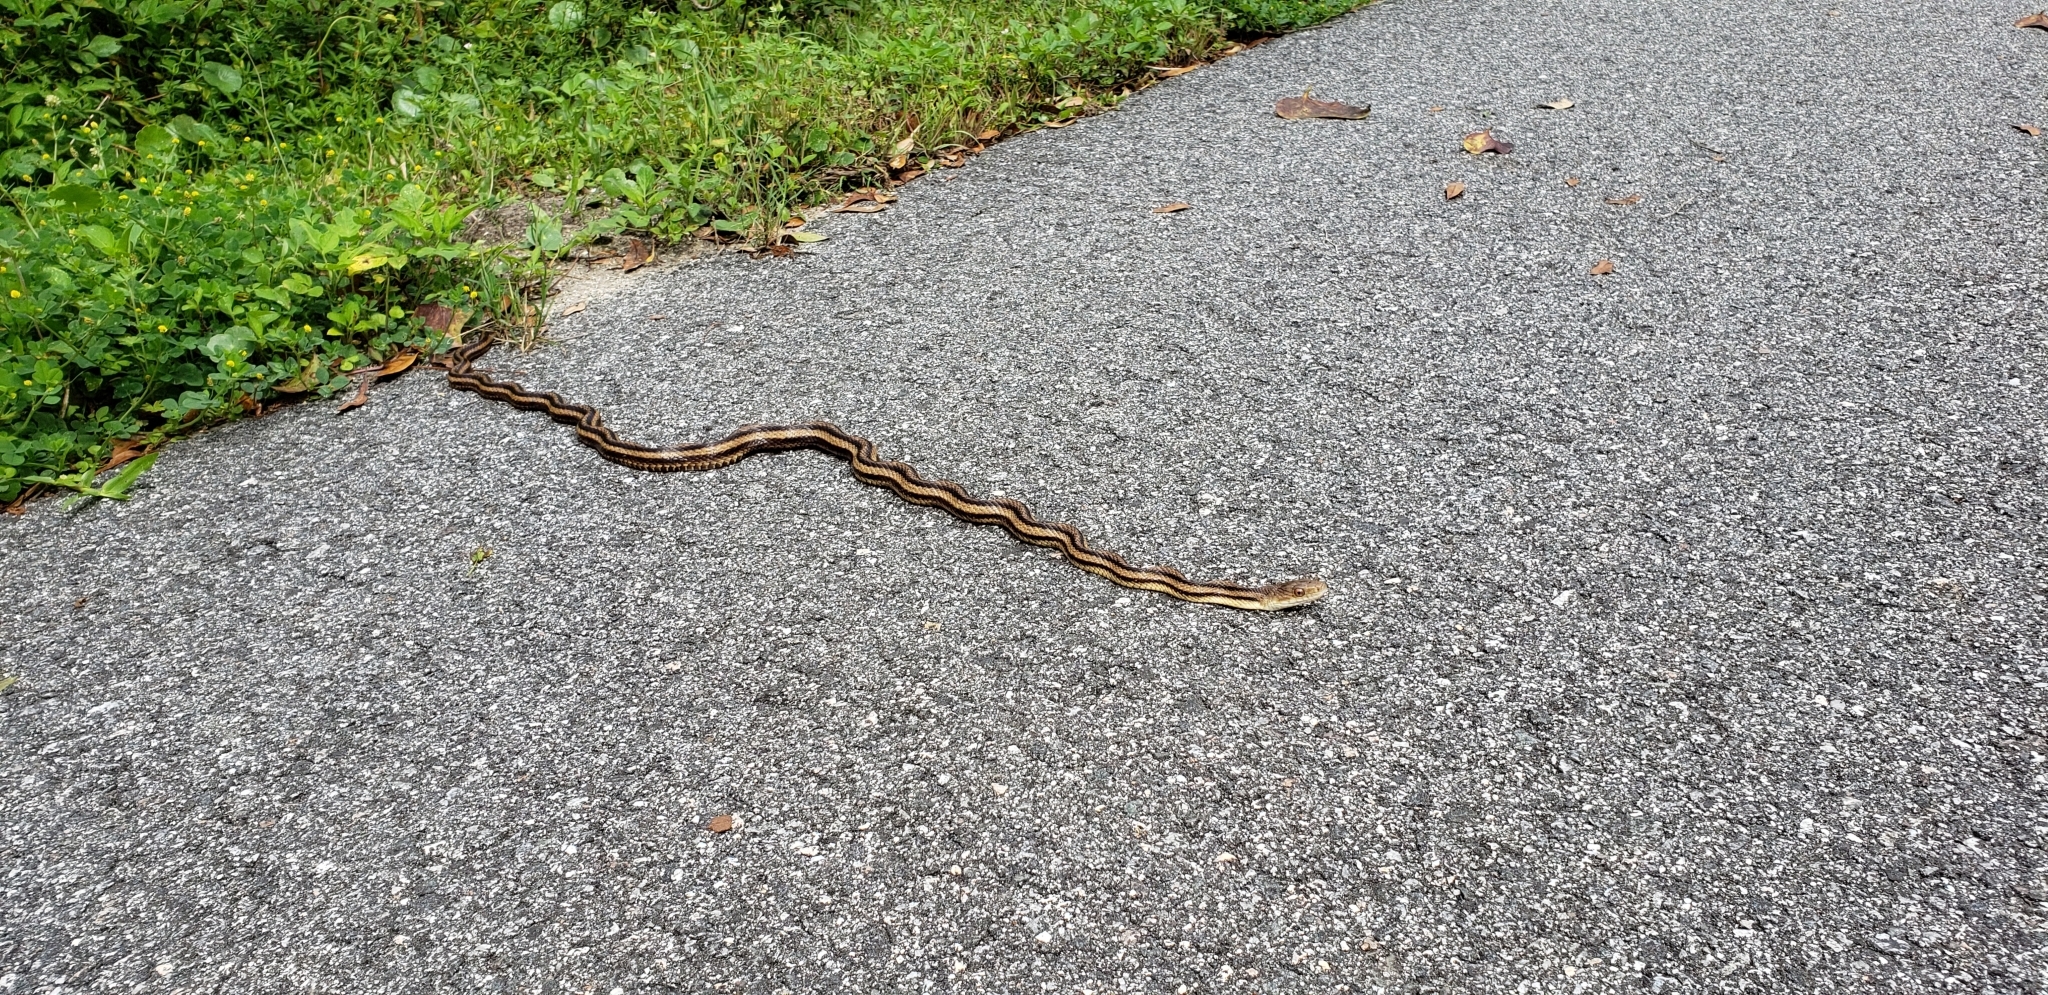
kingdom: Animalia
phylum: Chordata
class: Squamata
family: Colubridae
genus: Pantherophis
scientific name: Pantherophis alleghaniensis
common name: Eastern rat snake
